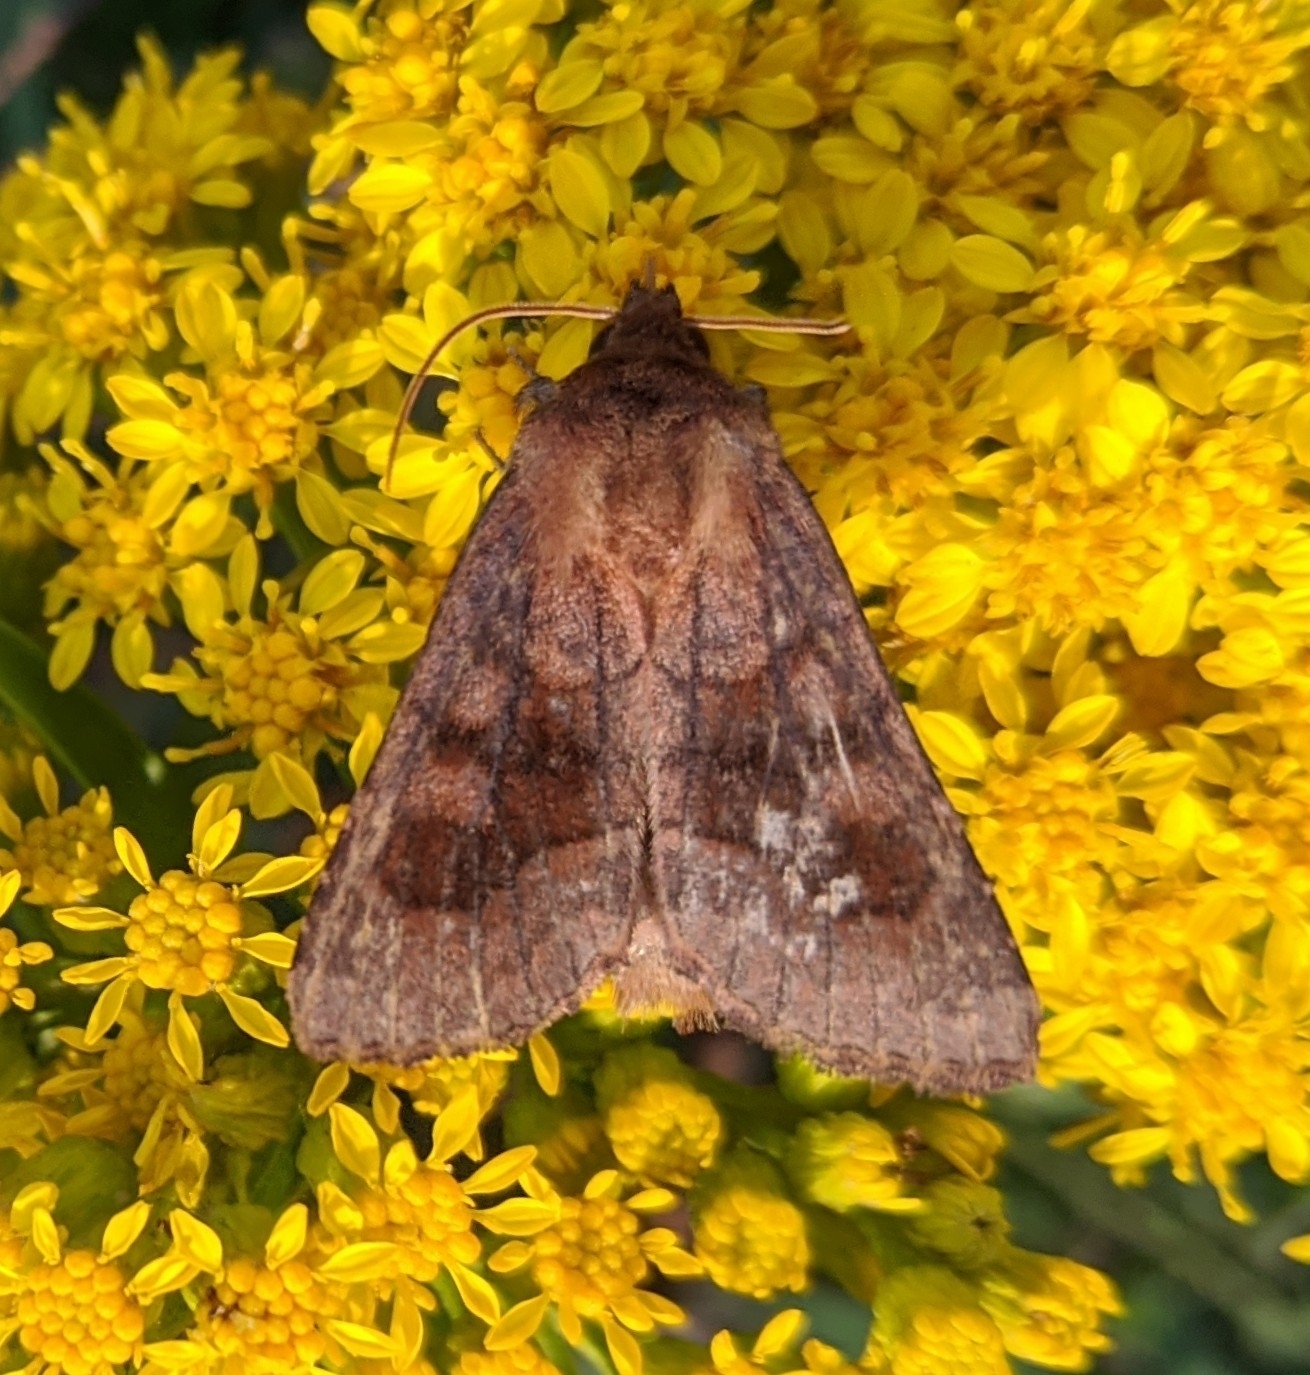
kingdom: Animalia
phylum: Arthropoda
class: Insecta
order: Lepidoptera
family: Noctuidae
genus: Nephelodes
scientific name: Nephelodes minians
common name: Bronzed cutworm
